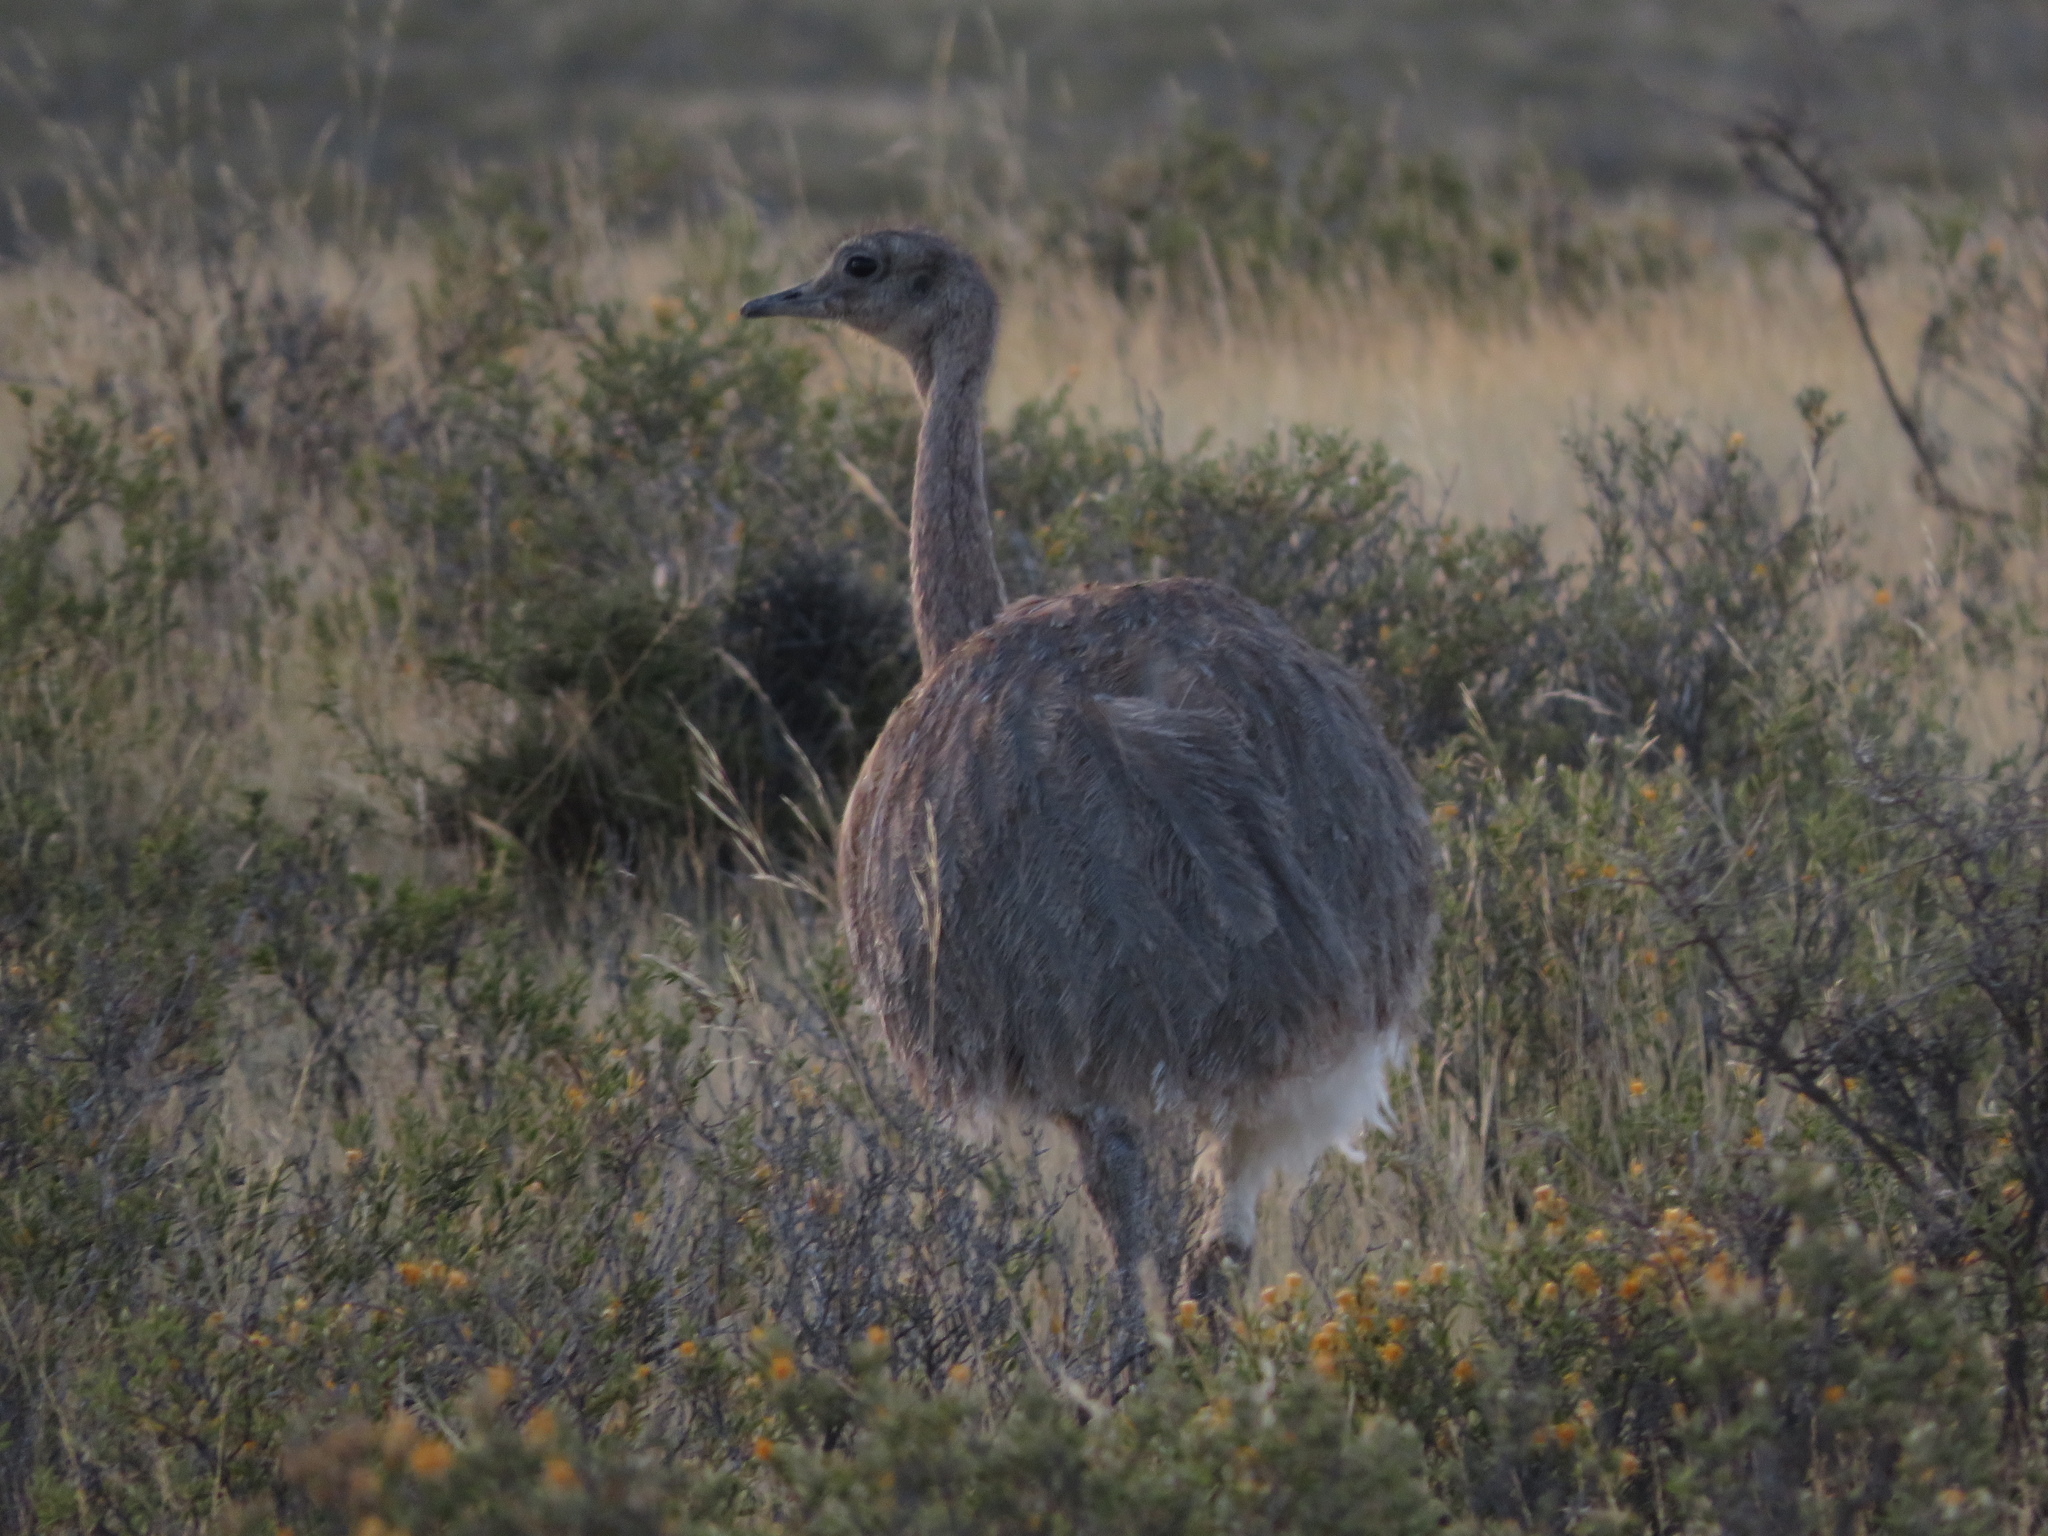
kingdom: Animalia
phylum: Chordata
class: Aves
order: Rheiformes
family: Rheidae
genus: Rhea
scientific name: Rhea pennata
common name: Lesser rhea
